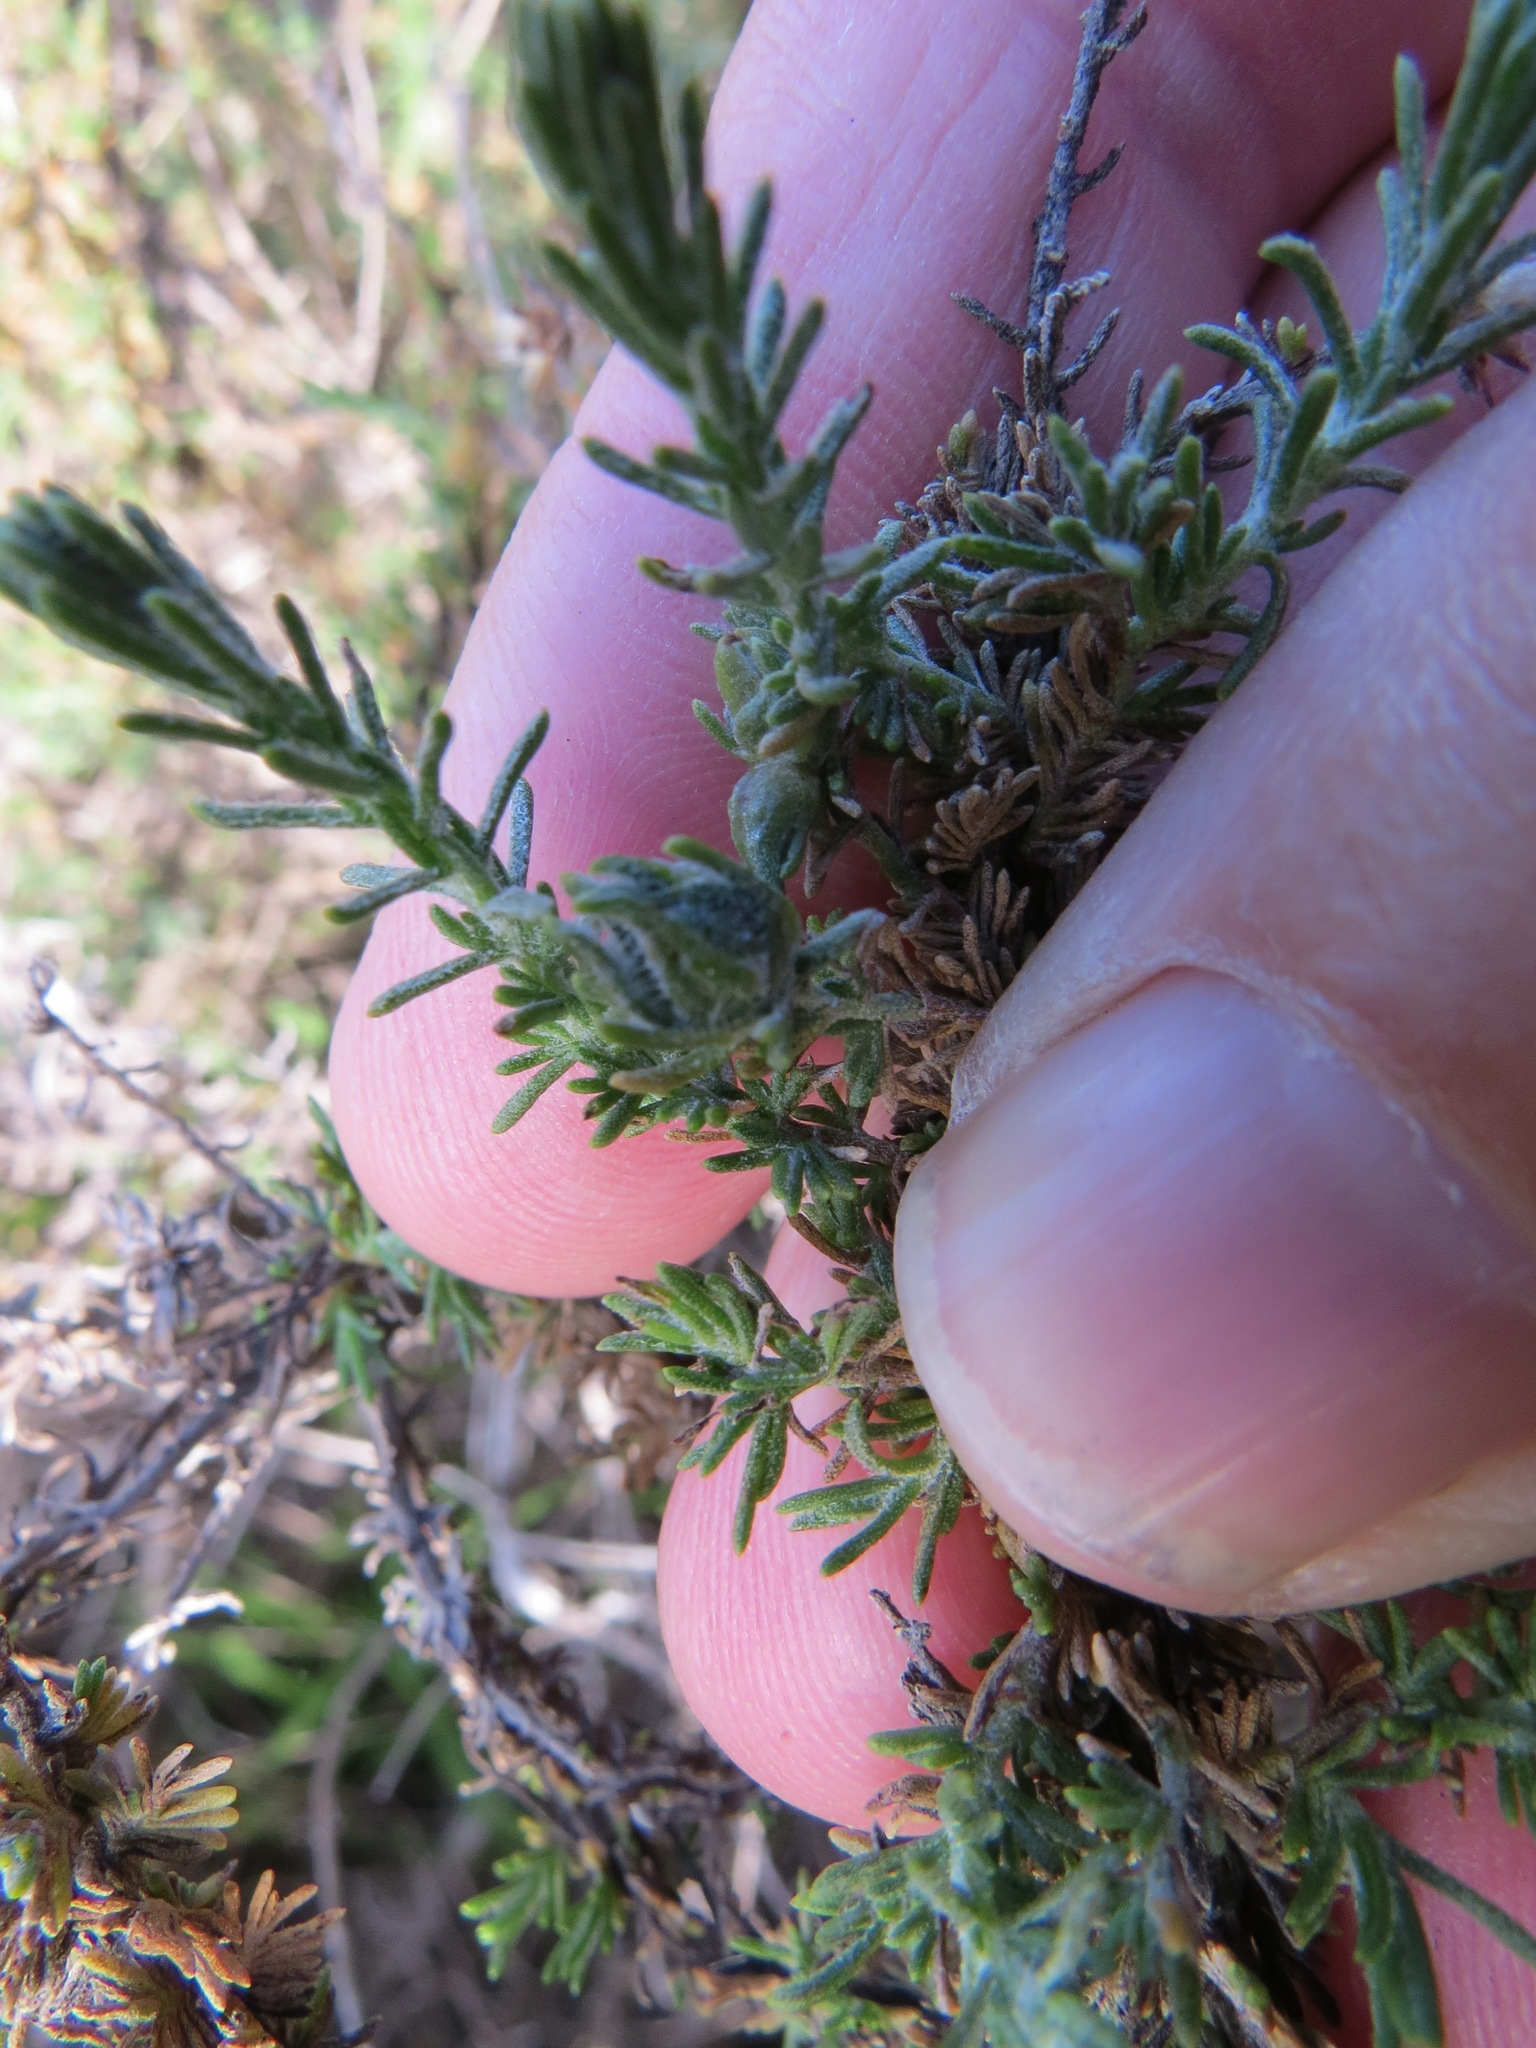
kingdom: Animalia
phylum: Arthropoda
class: Insecta
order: Diptera
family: Cecidomyiidae
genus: Prodiplosis
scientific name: Prodiplosis falcata
